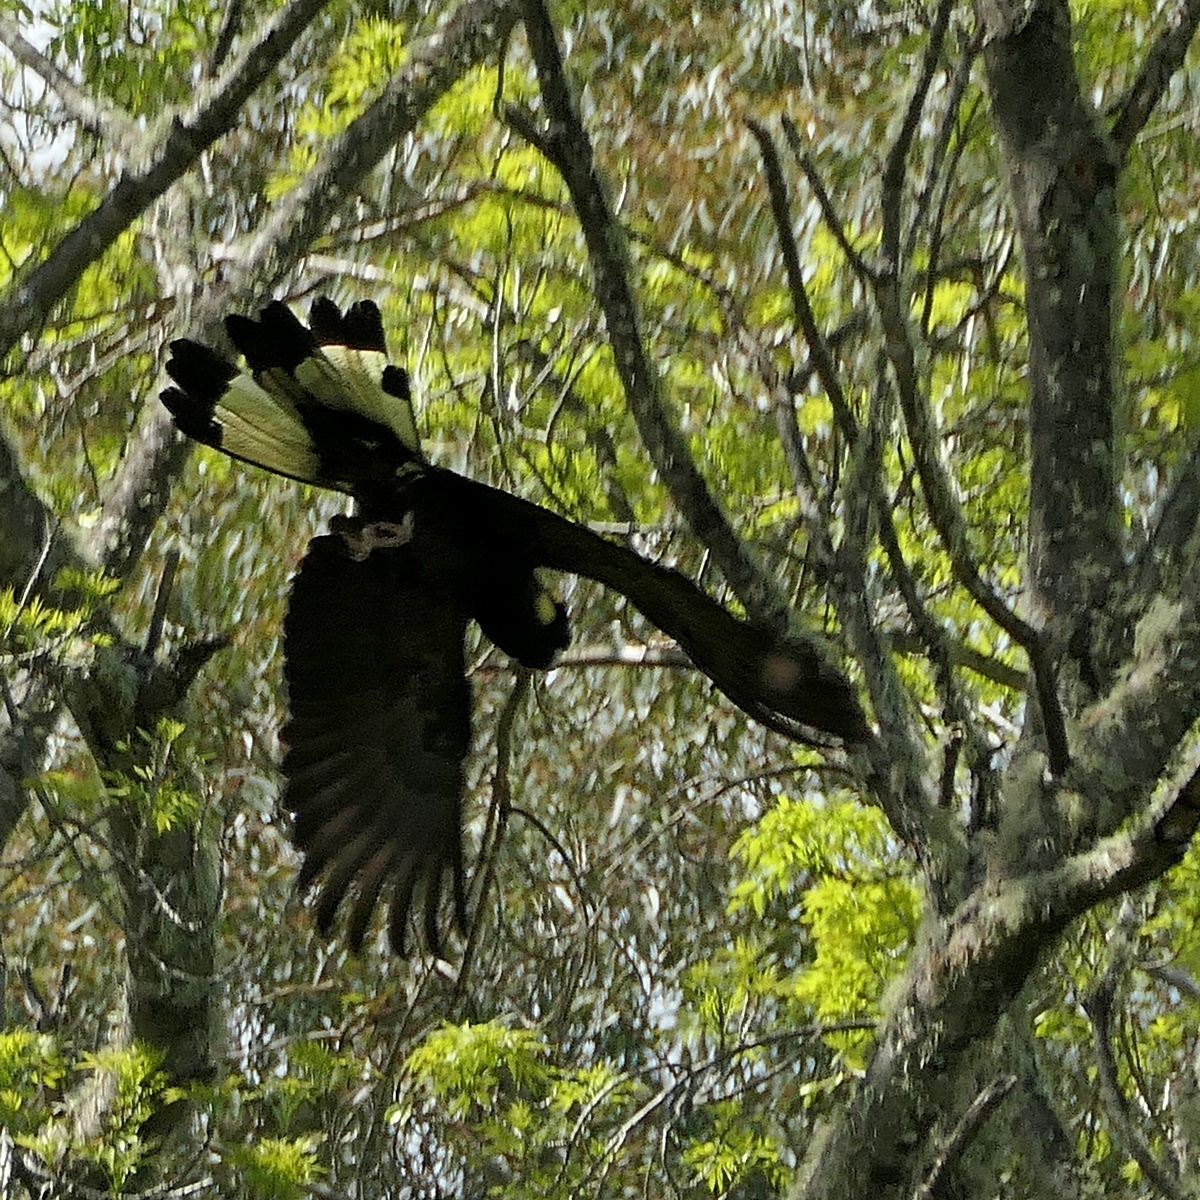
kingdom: Animalia
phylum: Chordata
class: Aves
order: Psittaciformes
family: Cacatuidae
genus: Zanda
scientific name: Zanda funerea
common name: Yellow-tailed black-cockatoo
